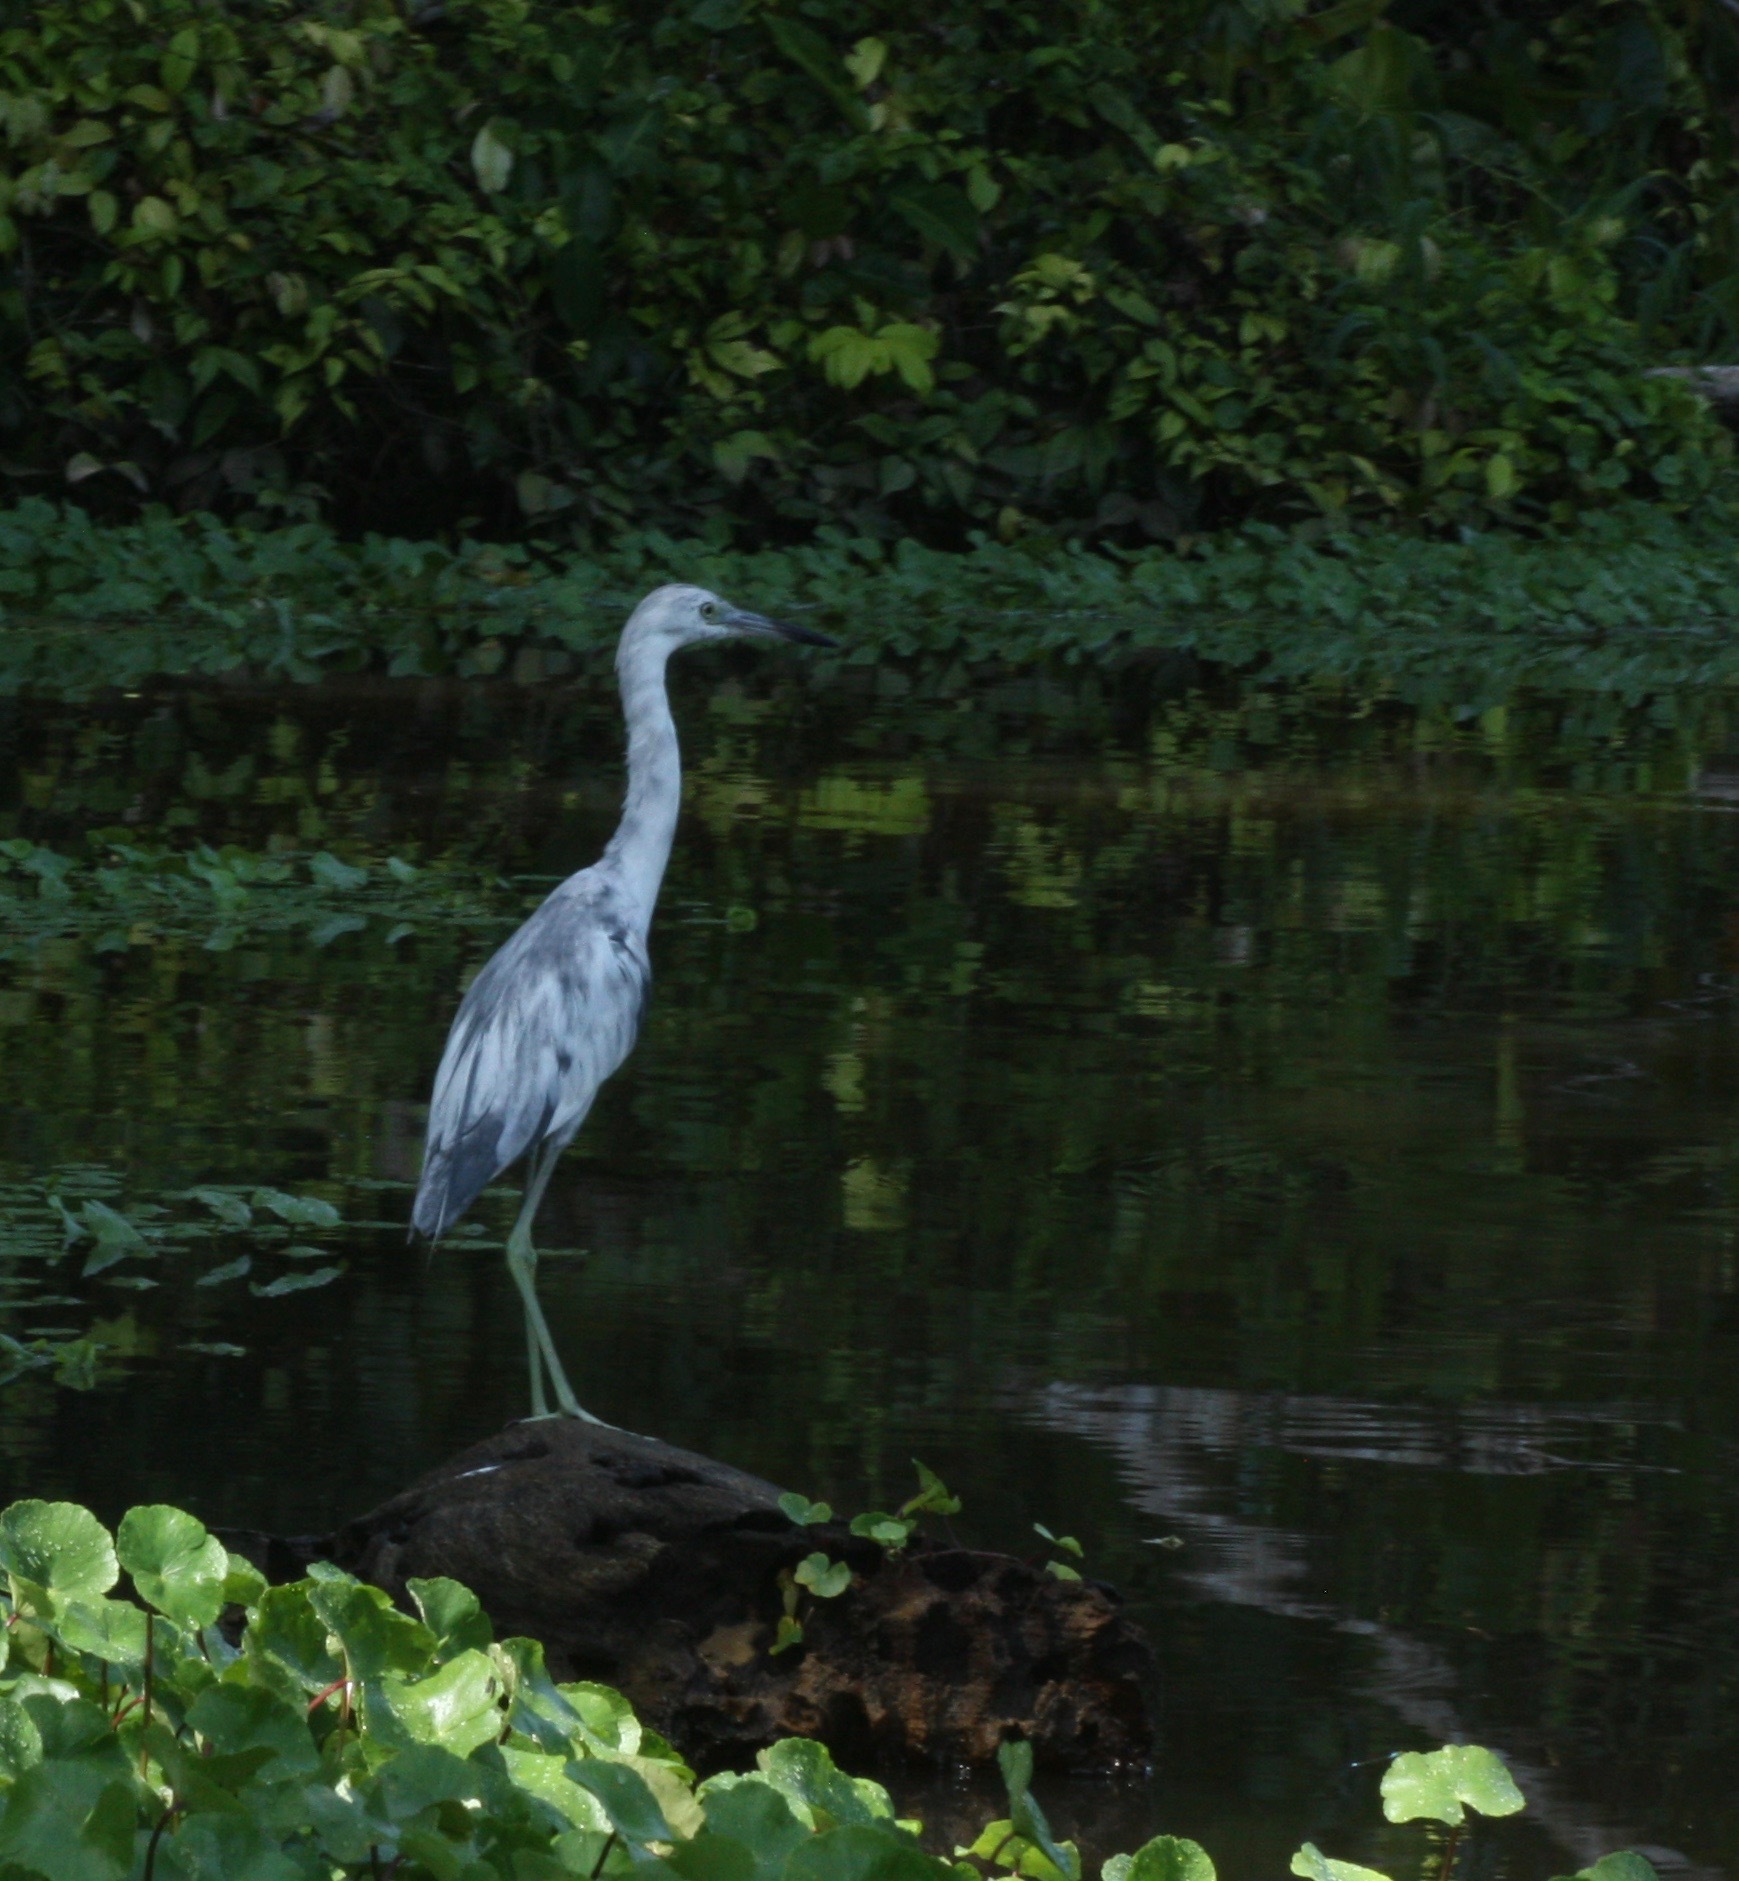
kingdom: Animalia
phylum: Chordata
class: Aves
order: Pelecaniformes
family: Ardeidae
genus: Egretta
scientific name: Egretta caerulea
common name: Little blue heron
